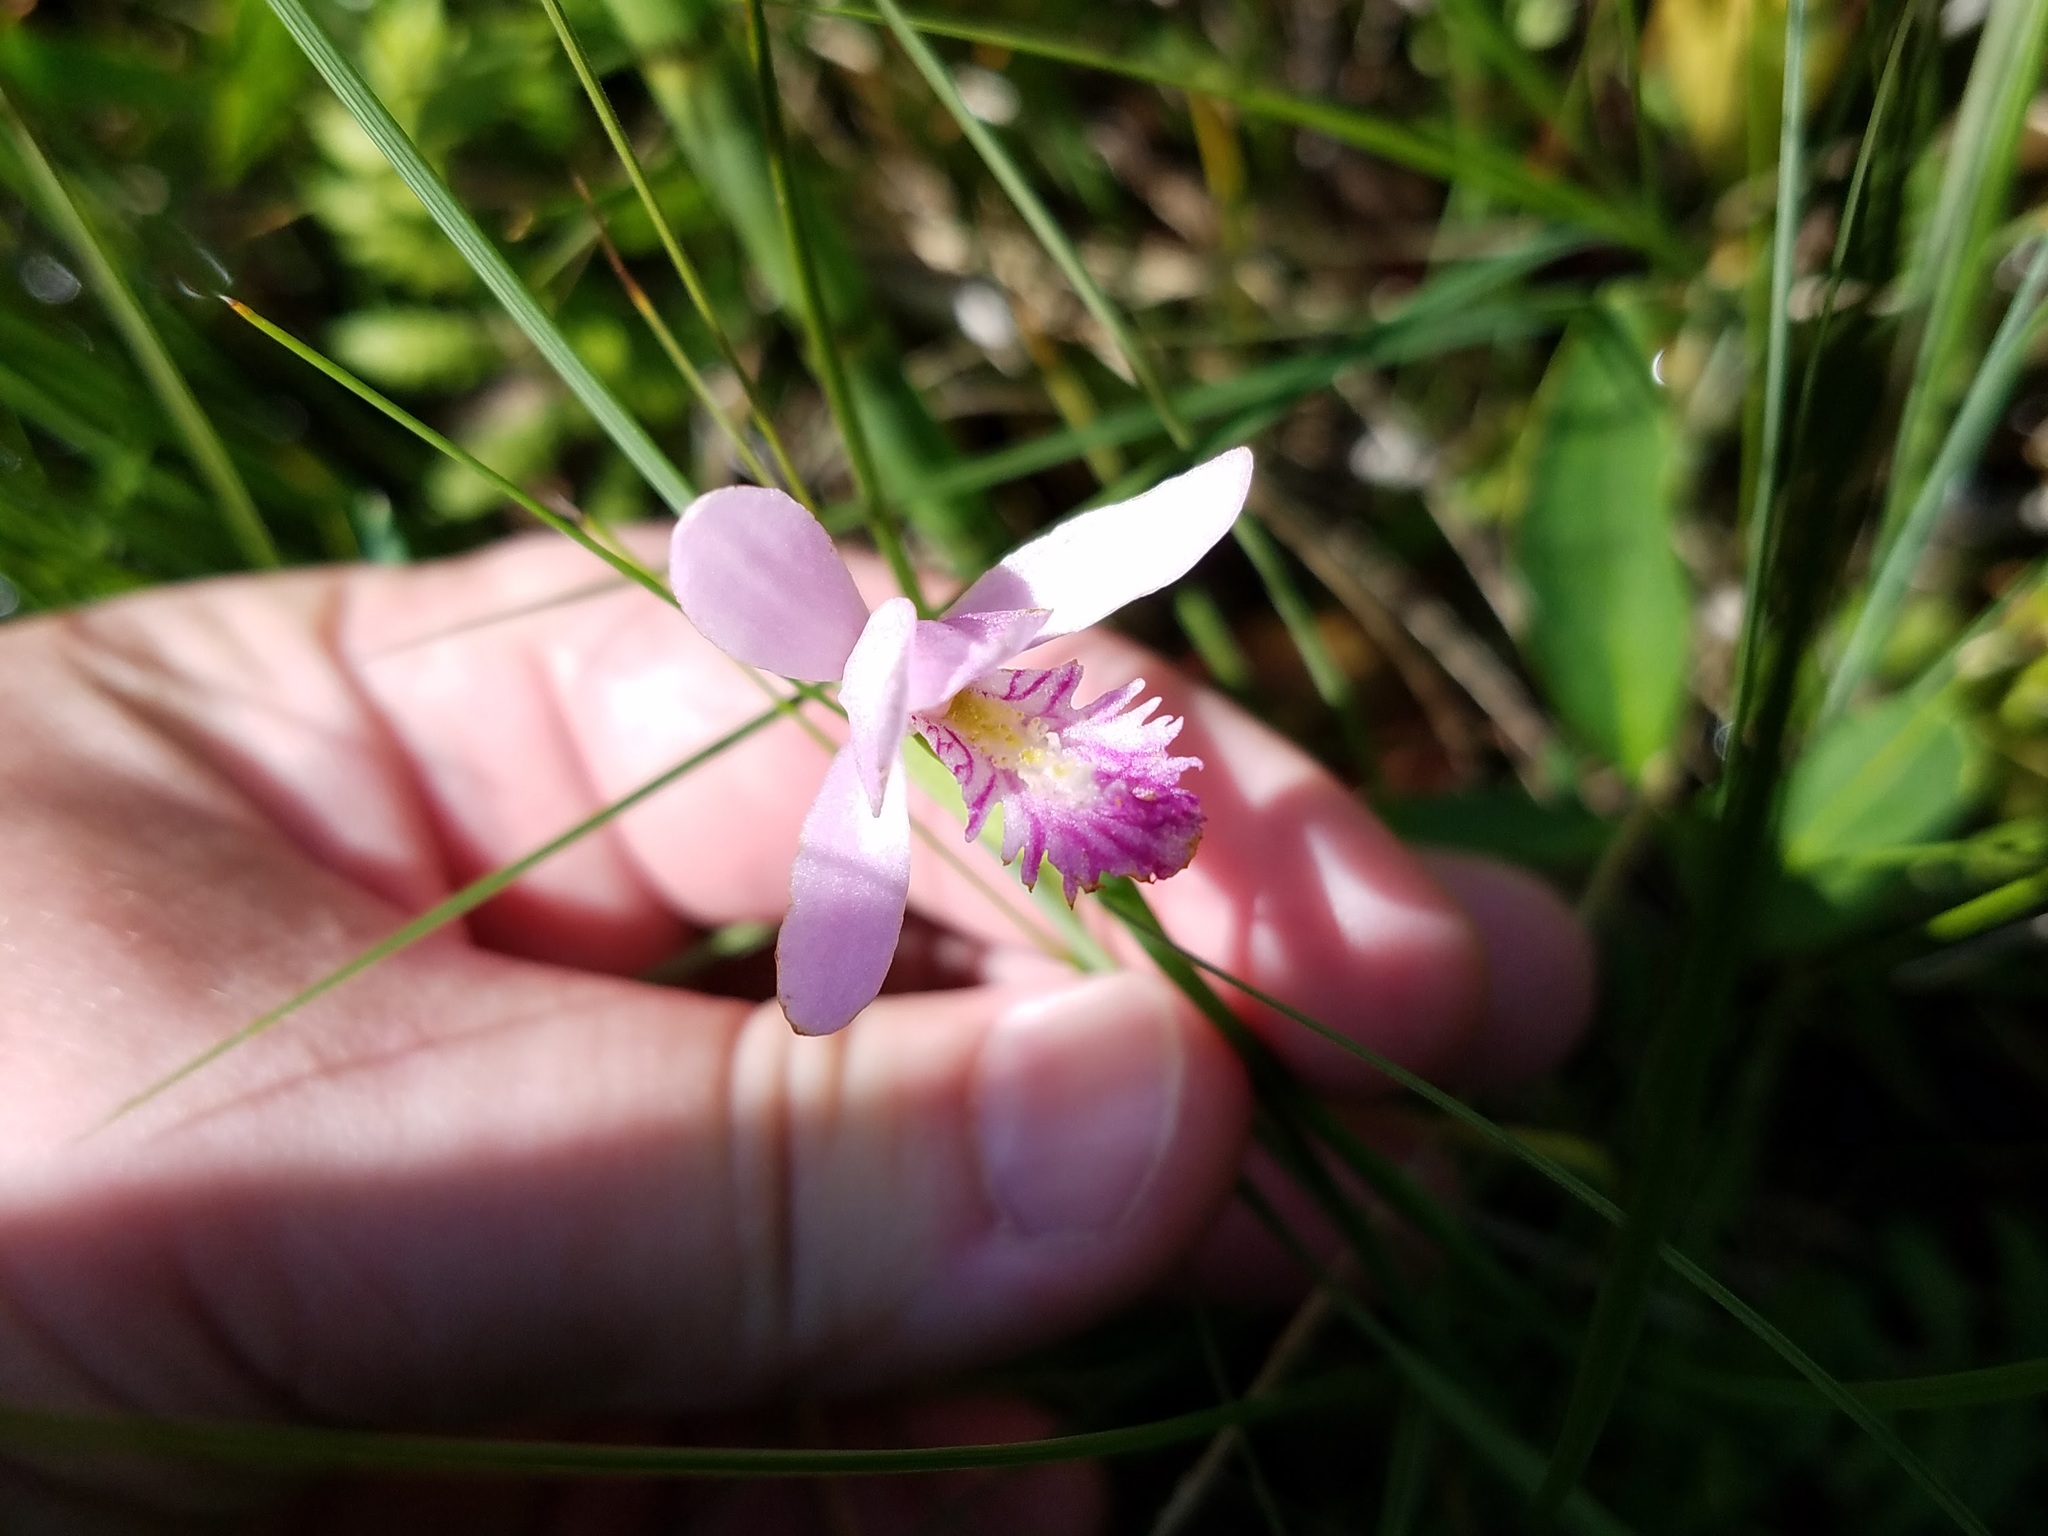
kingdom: Plantae
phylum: Tracheophyta
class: Liliopsida
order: Asparagales
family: Orchidaceae
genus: Pogonia
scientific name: Pogonia ophioglossoides
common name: Rose pogonia
